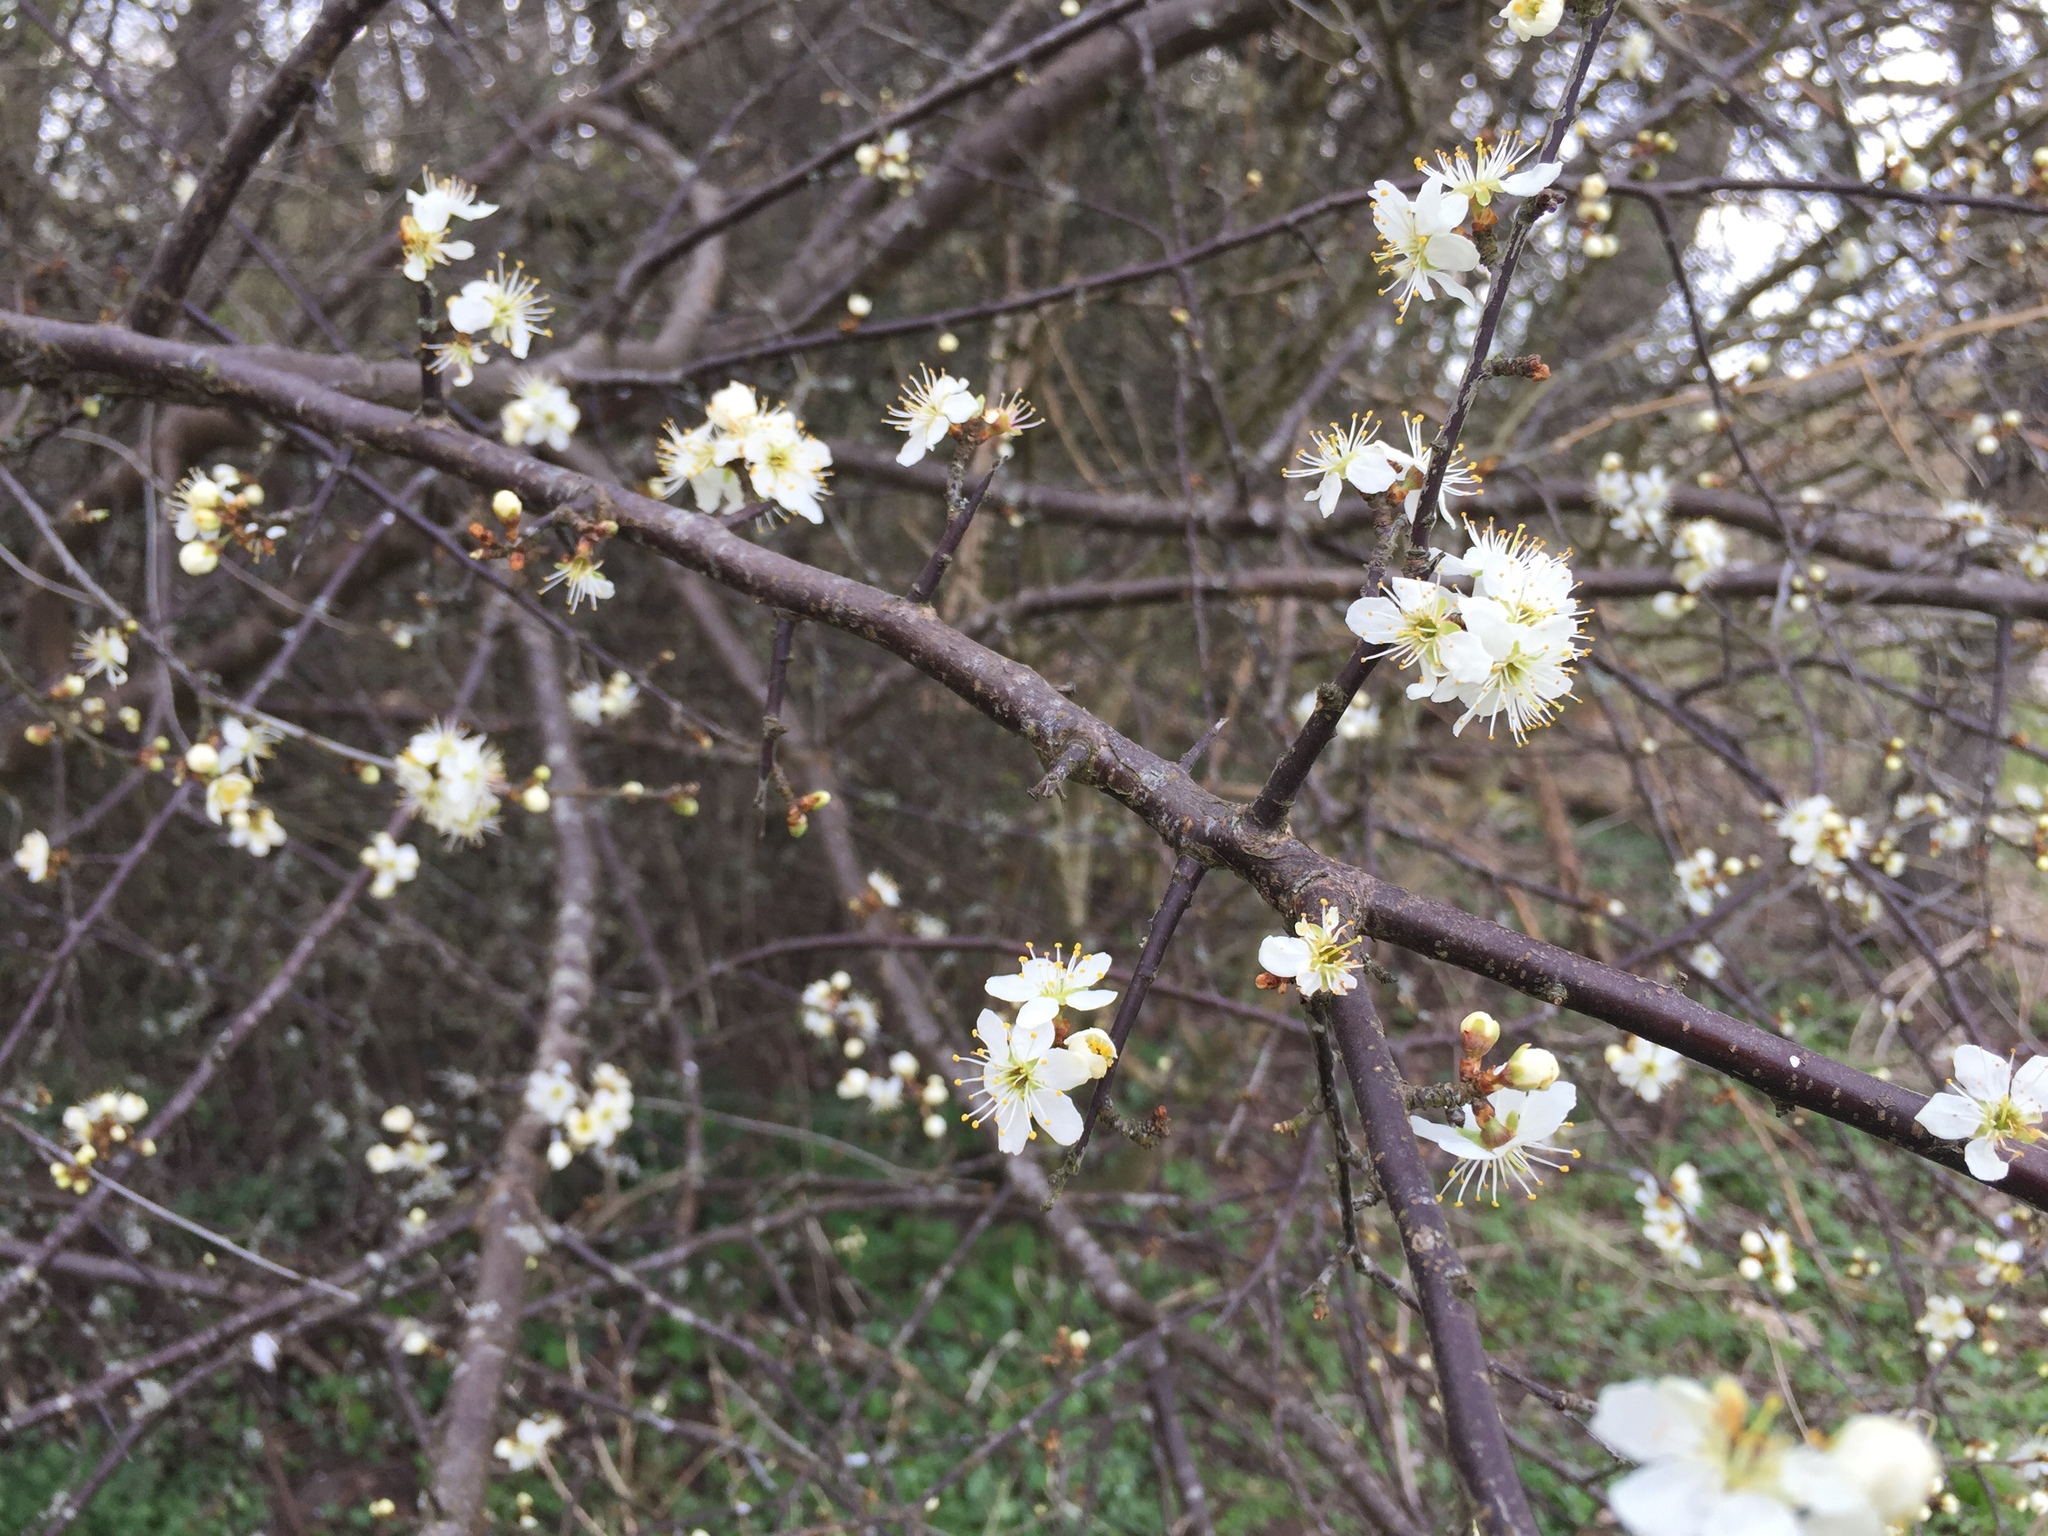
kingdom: Plantae
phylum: Tracheophyta
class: Magnoliopsida
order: Rosales
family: Rosaceae
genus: Prunus
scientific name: Prunus spinosa
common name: Blackthorn
